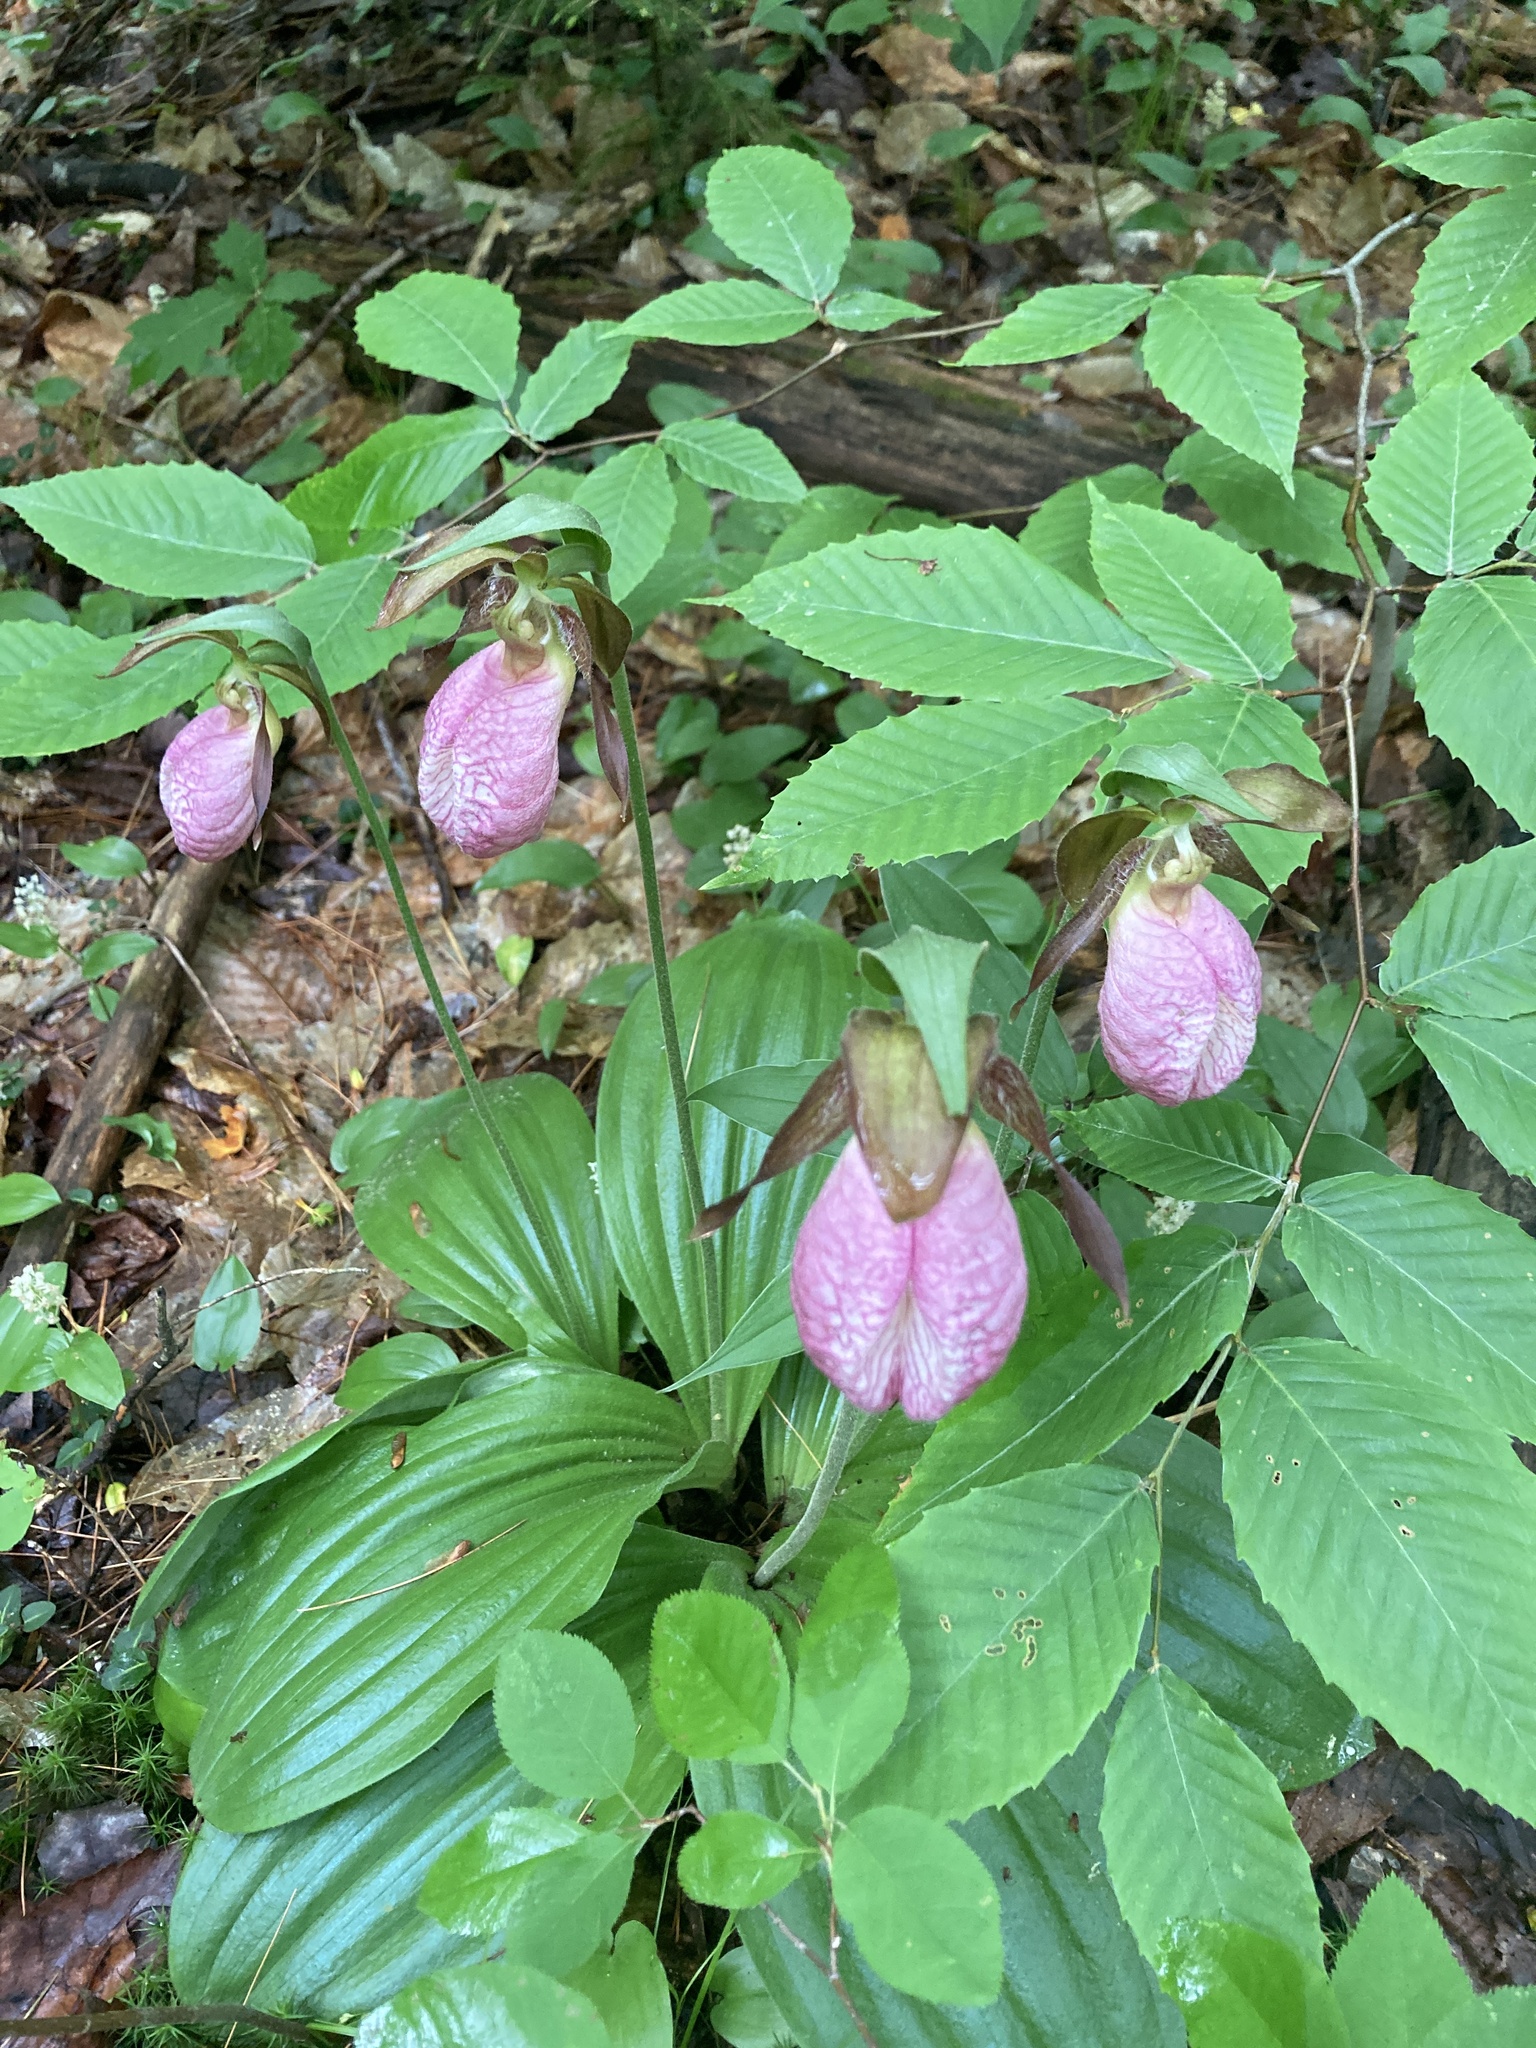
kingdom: Plantae
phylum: Tracheophyta
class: Liliopsida
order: Asparagales
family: Orchidaceae
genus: Cypripedium
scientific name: Cypripedium acaule
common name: Pink lady's-slipper
